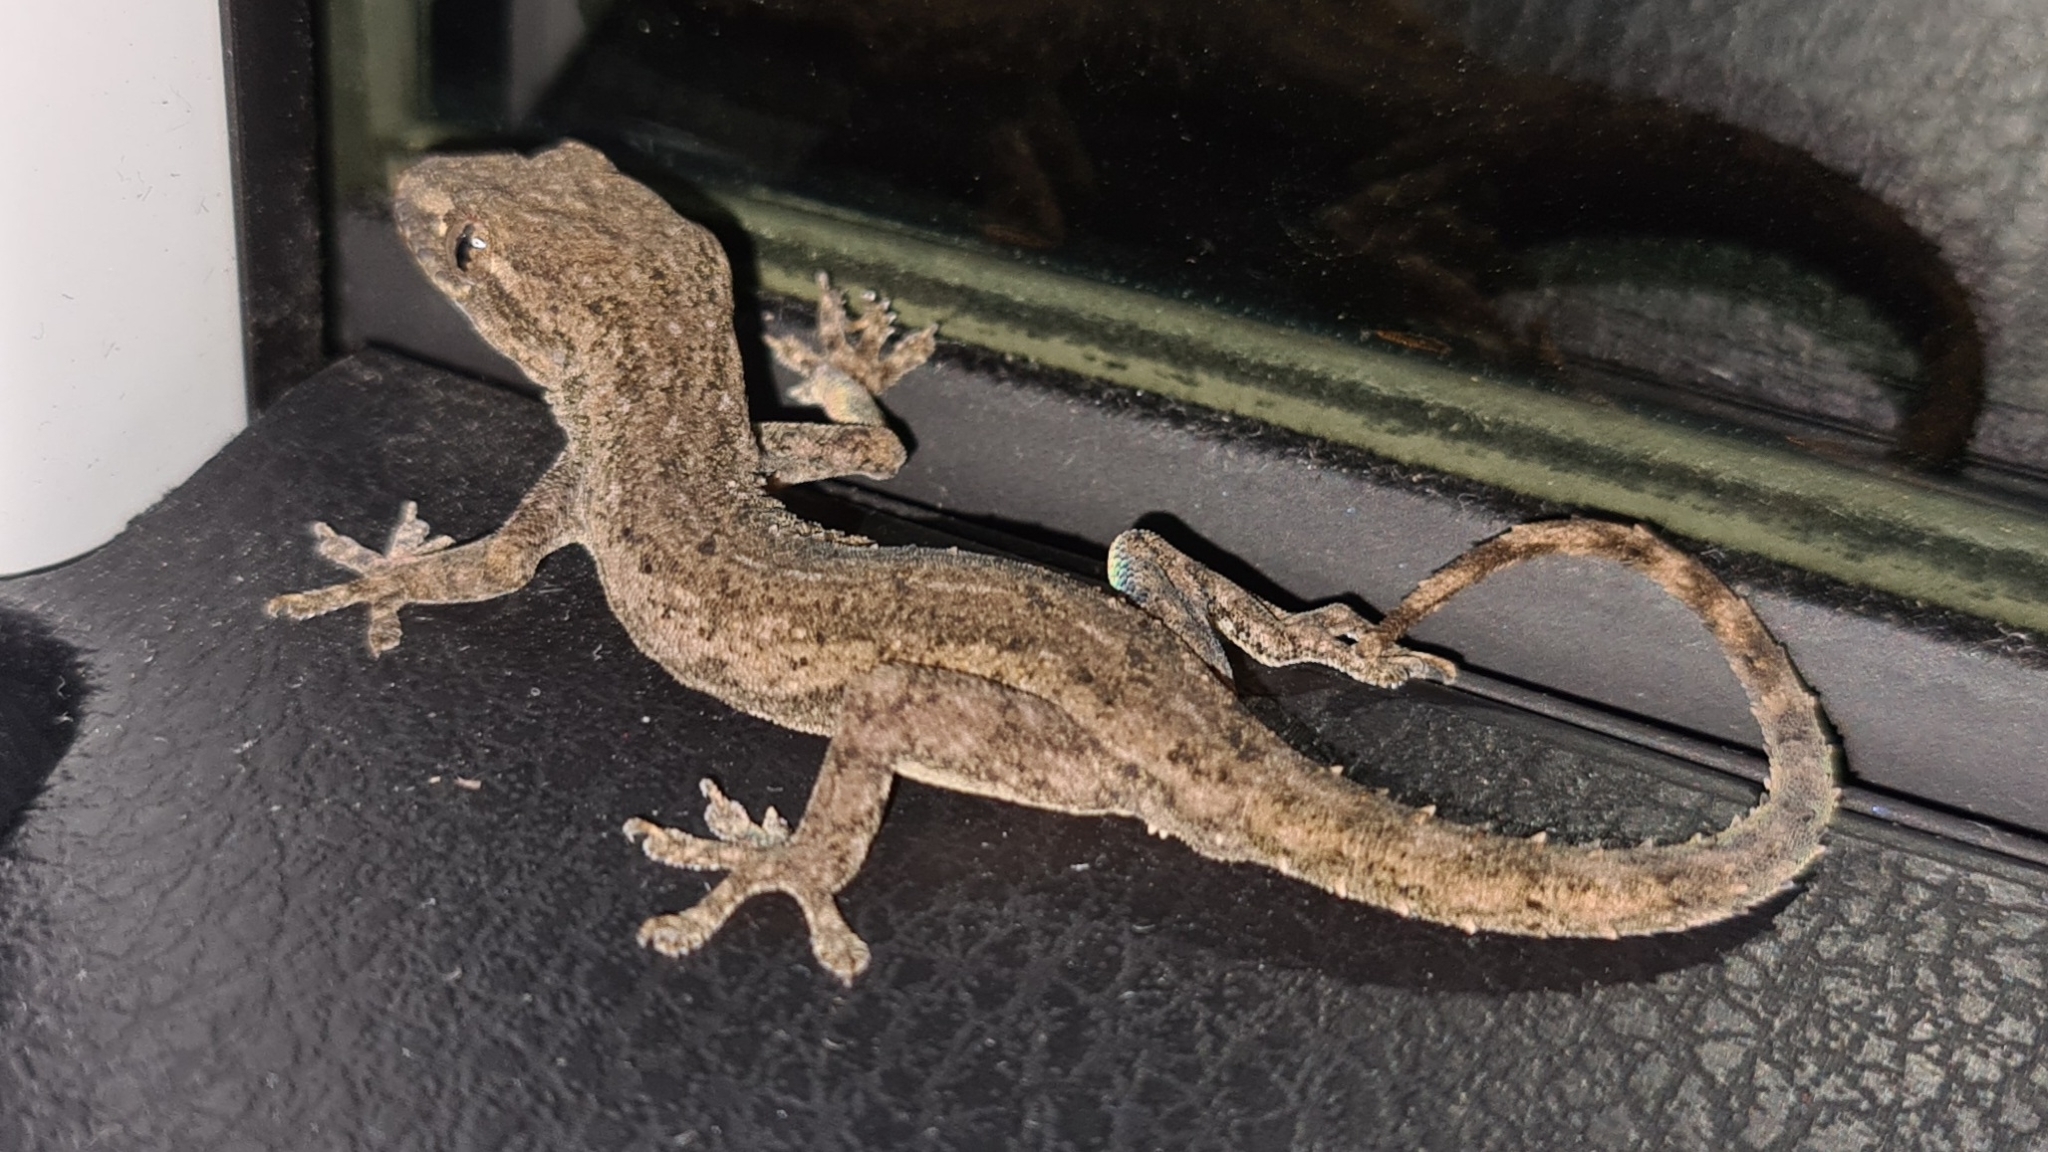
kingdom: Animalia
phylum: Chordata
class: Squamata
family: Gekkonidae
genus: Hemidactylus
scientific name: Hemidactylus frenatus
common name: Common house gecko
